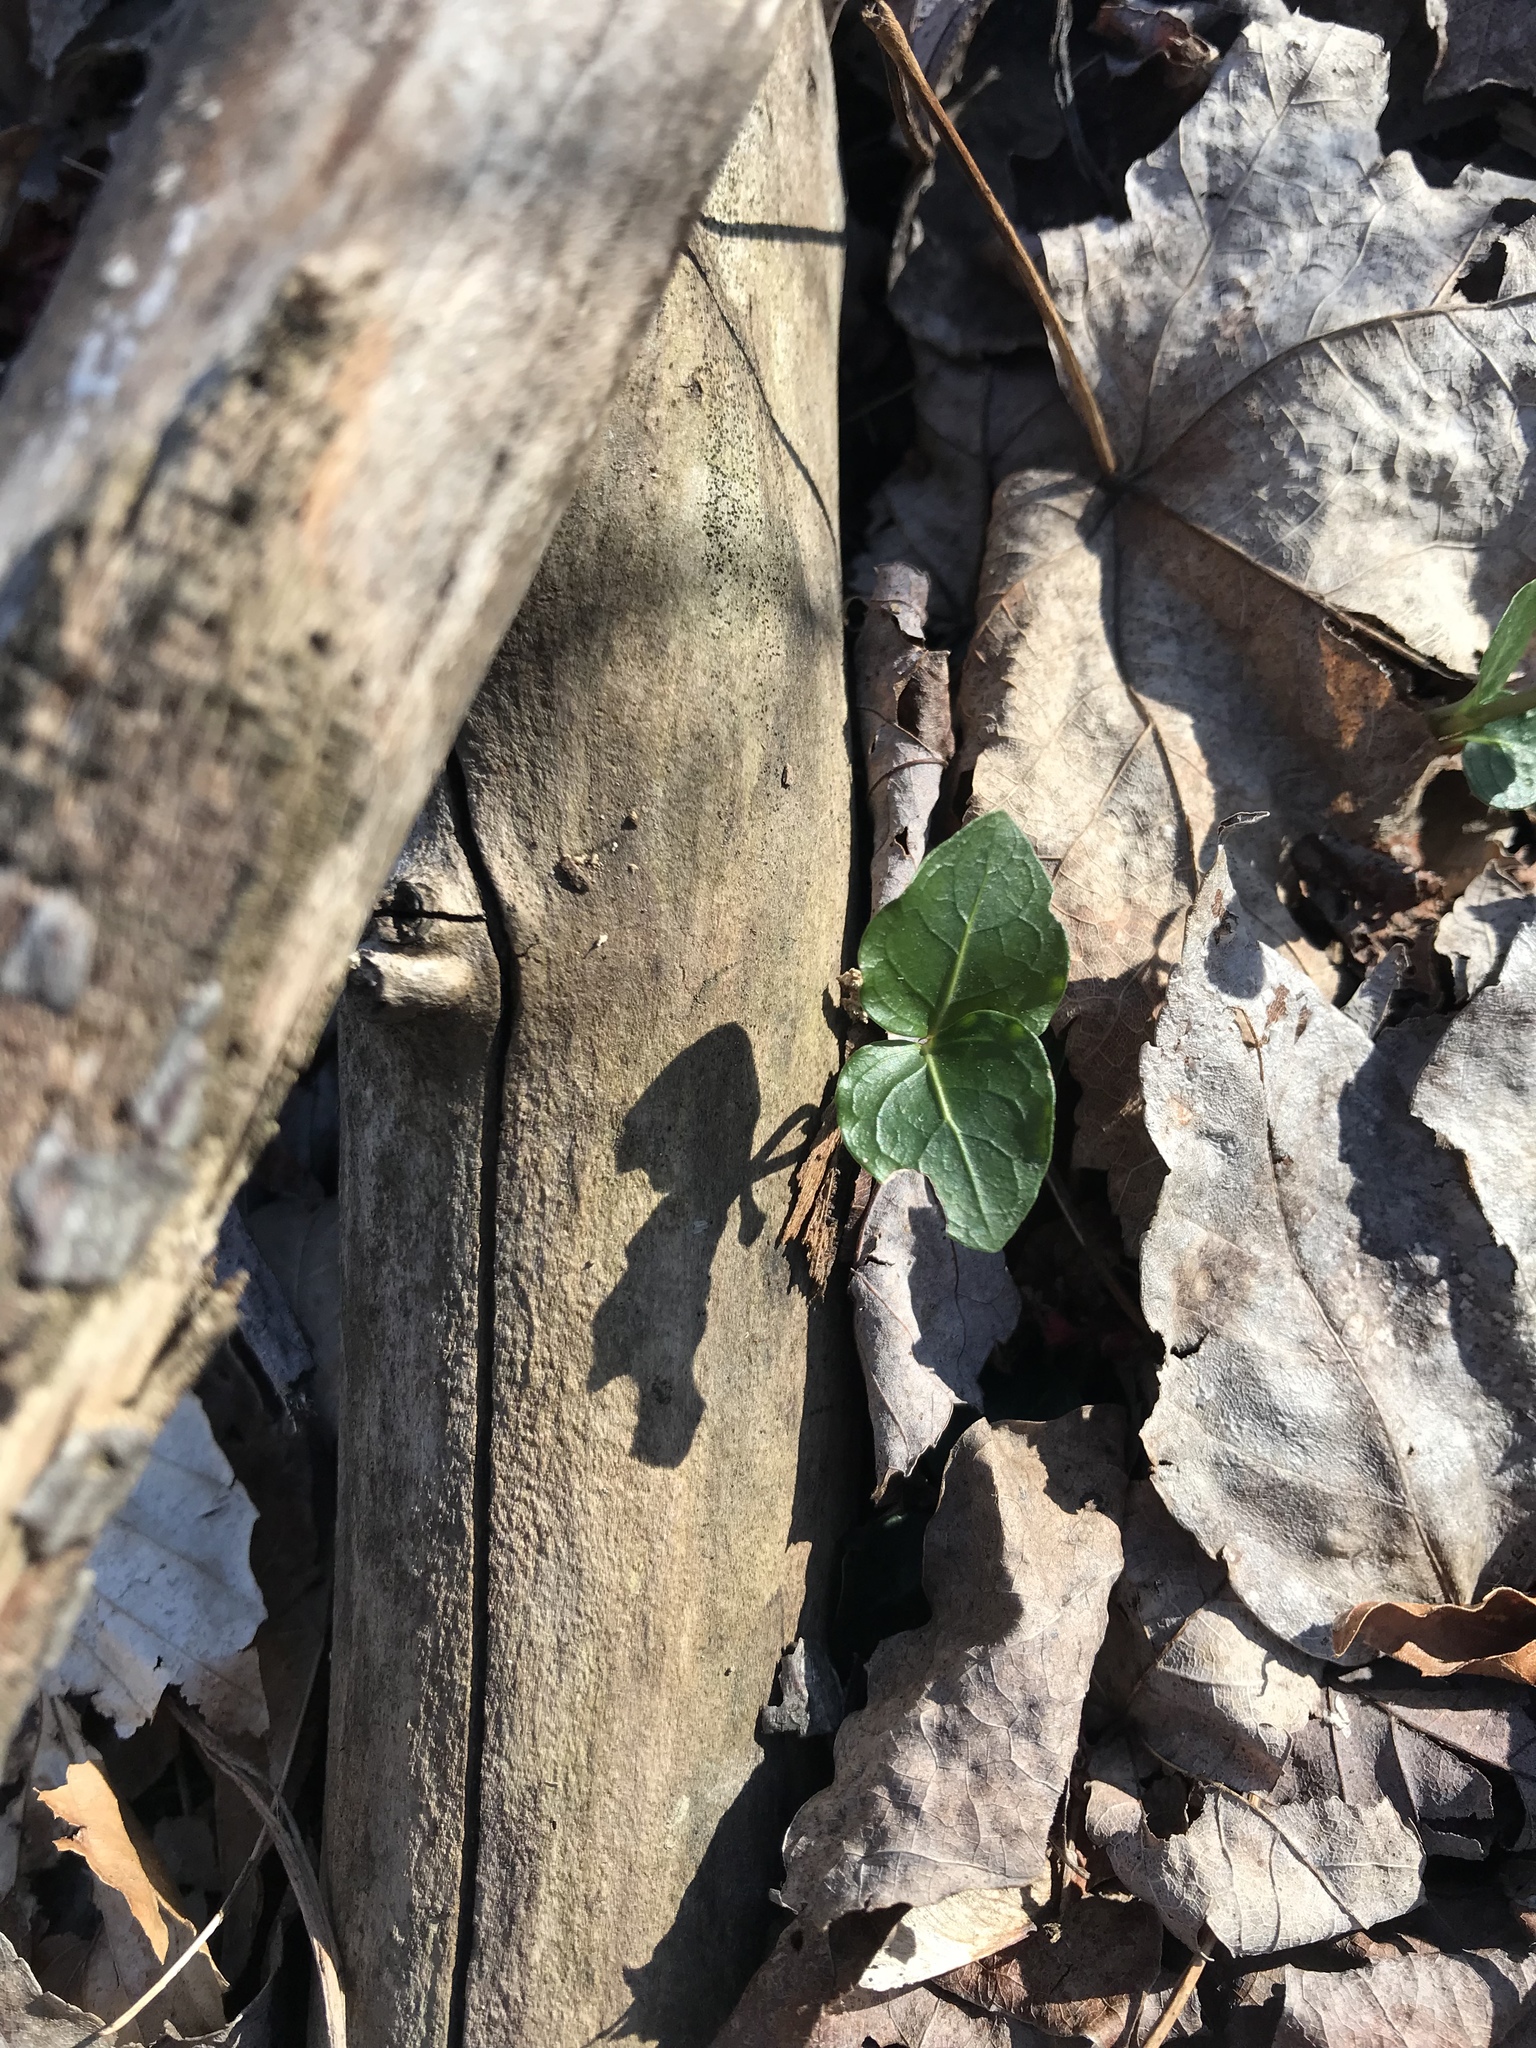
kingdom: Plantae
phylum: Tracheophyta
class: Magnoliopsida
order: Gentianales
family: Rubiaceae
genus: Mitchella
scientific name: Mitchella repens
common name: Partridge-berry
